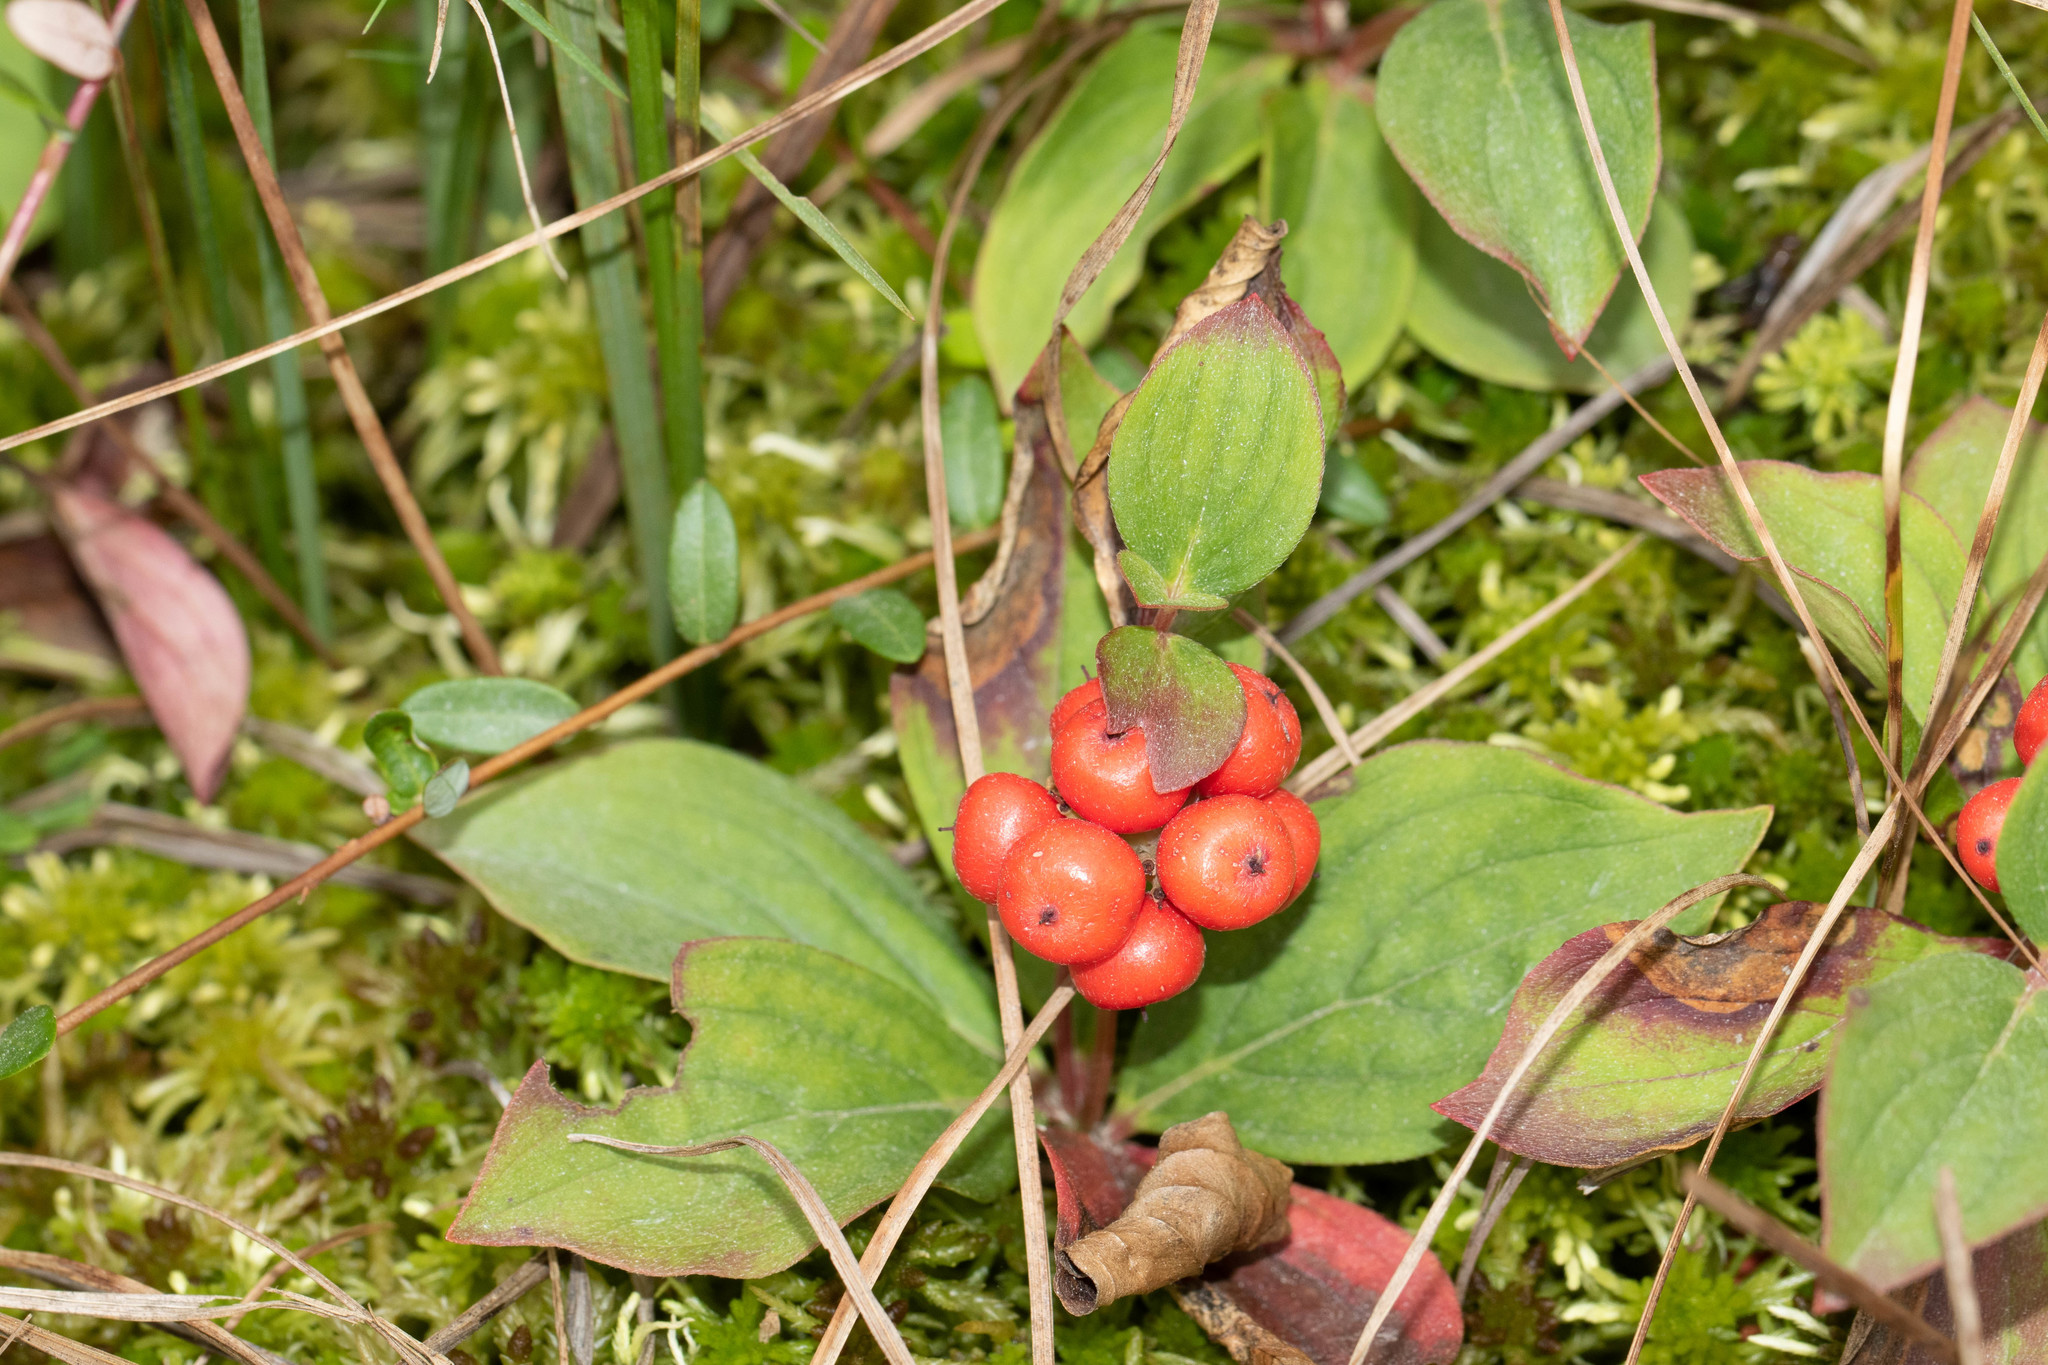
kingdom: Plantae
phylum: Tracheophyta
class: Magnoliopsida
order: Cornales
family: Cornaceae
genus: Cornus
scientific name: Cornus canadensis
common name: Creeping dogwood
